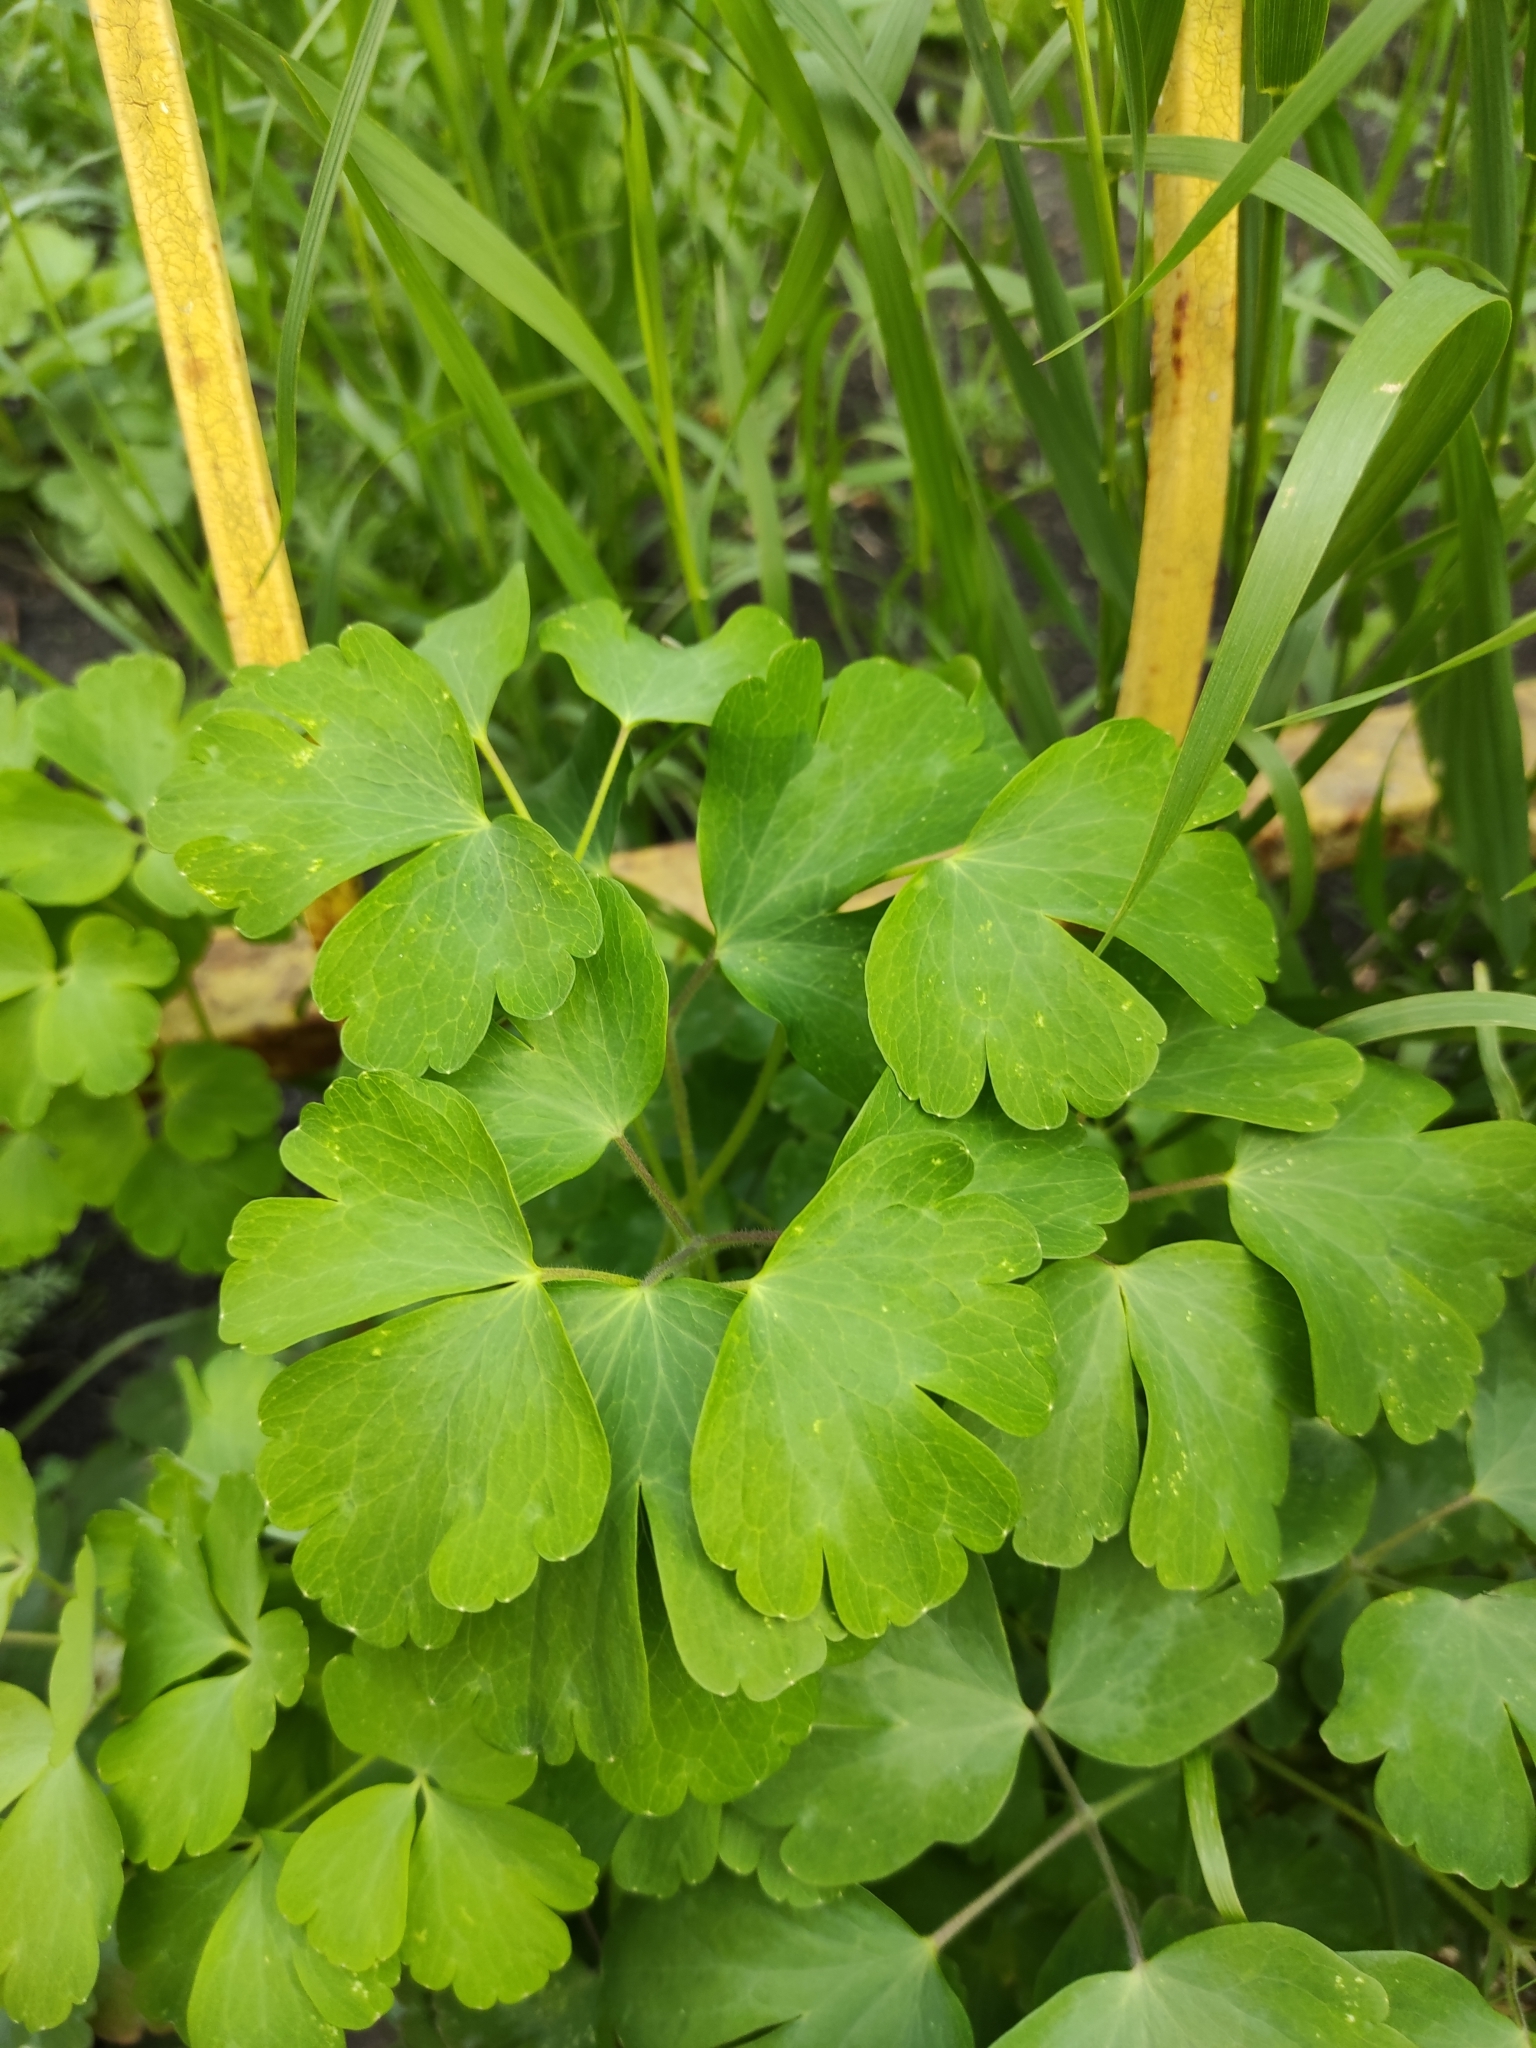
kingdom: Plantae
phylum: Tracheophyta
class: Magnoliopsida
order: Ranunculales
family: Ranunculaceae
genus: Aquilegia
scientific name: Aquilegia vulgaris
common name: Columbine
